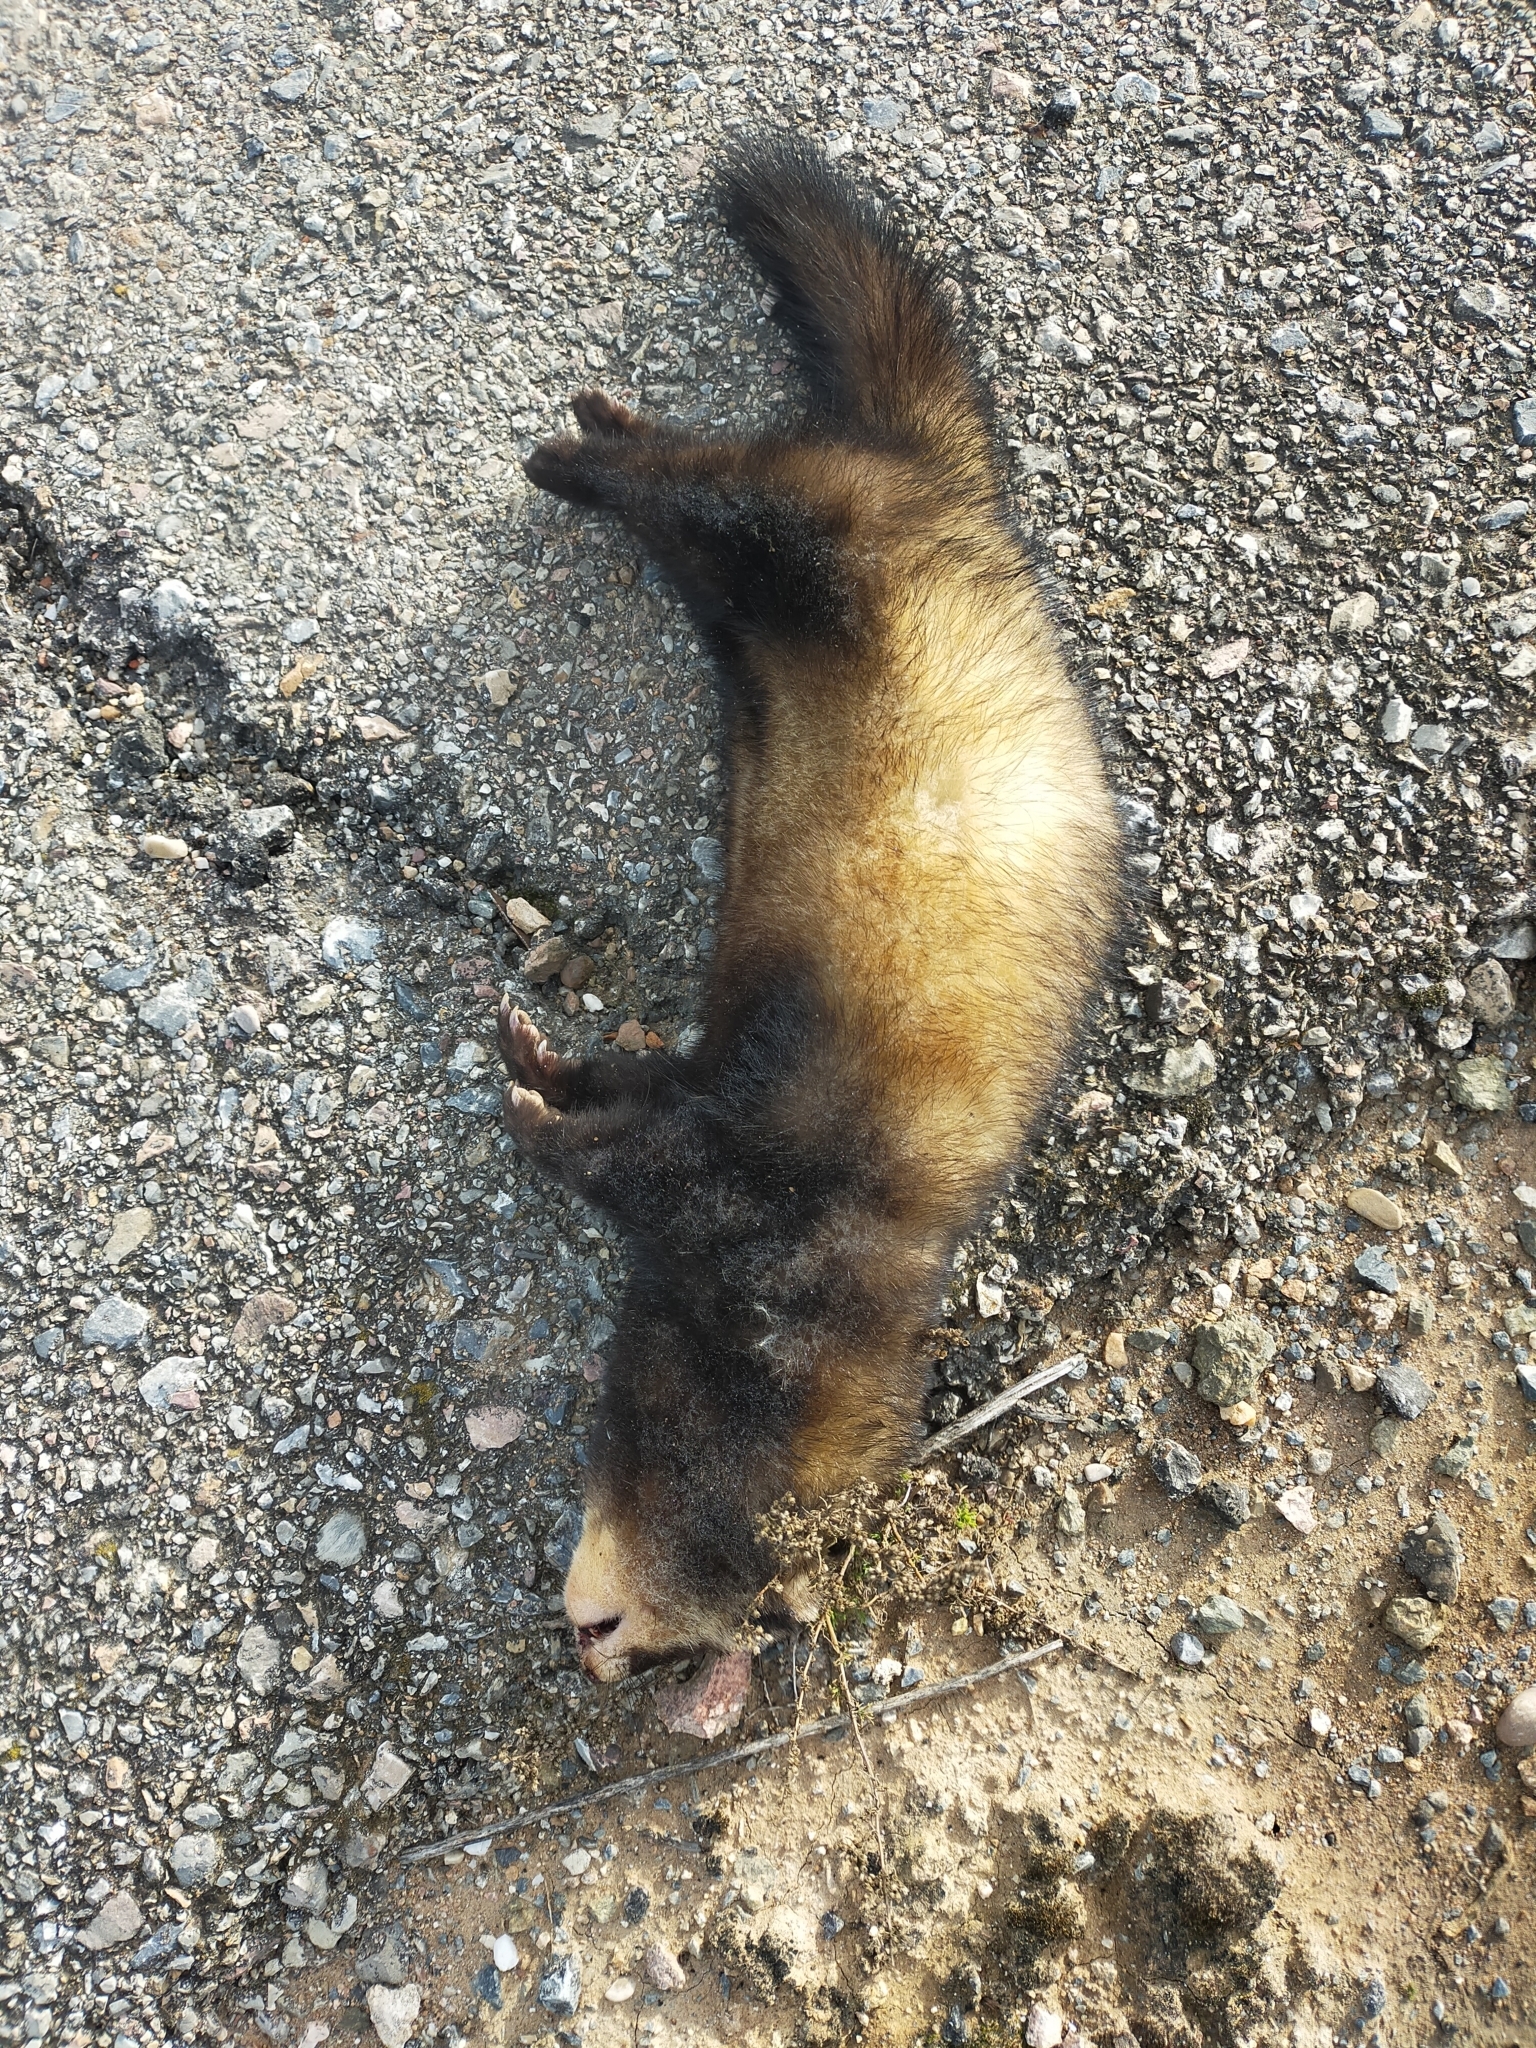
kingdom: Animalia
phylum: Chordata
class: Mammalia
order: Carnivora
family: Mustelidae
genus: Mustela
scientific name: Mustela putorius
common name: European polecat
